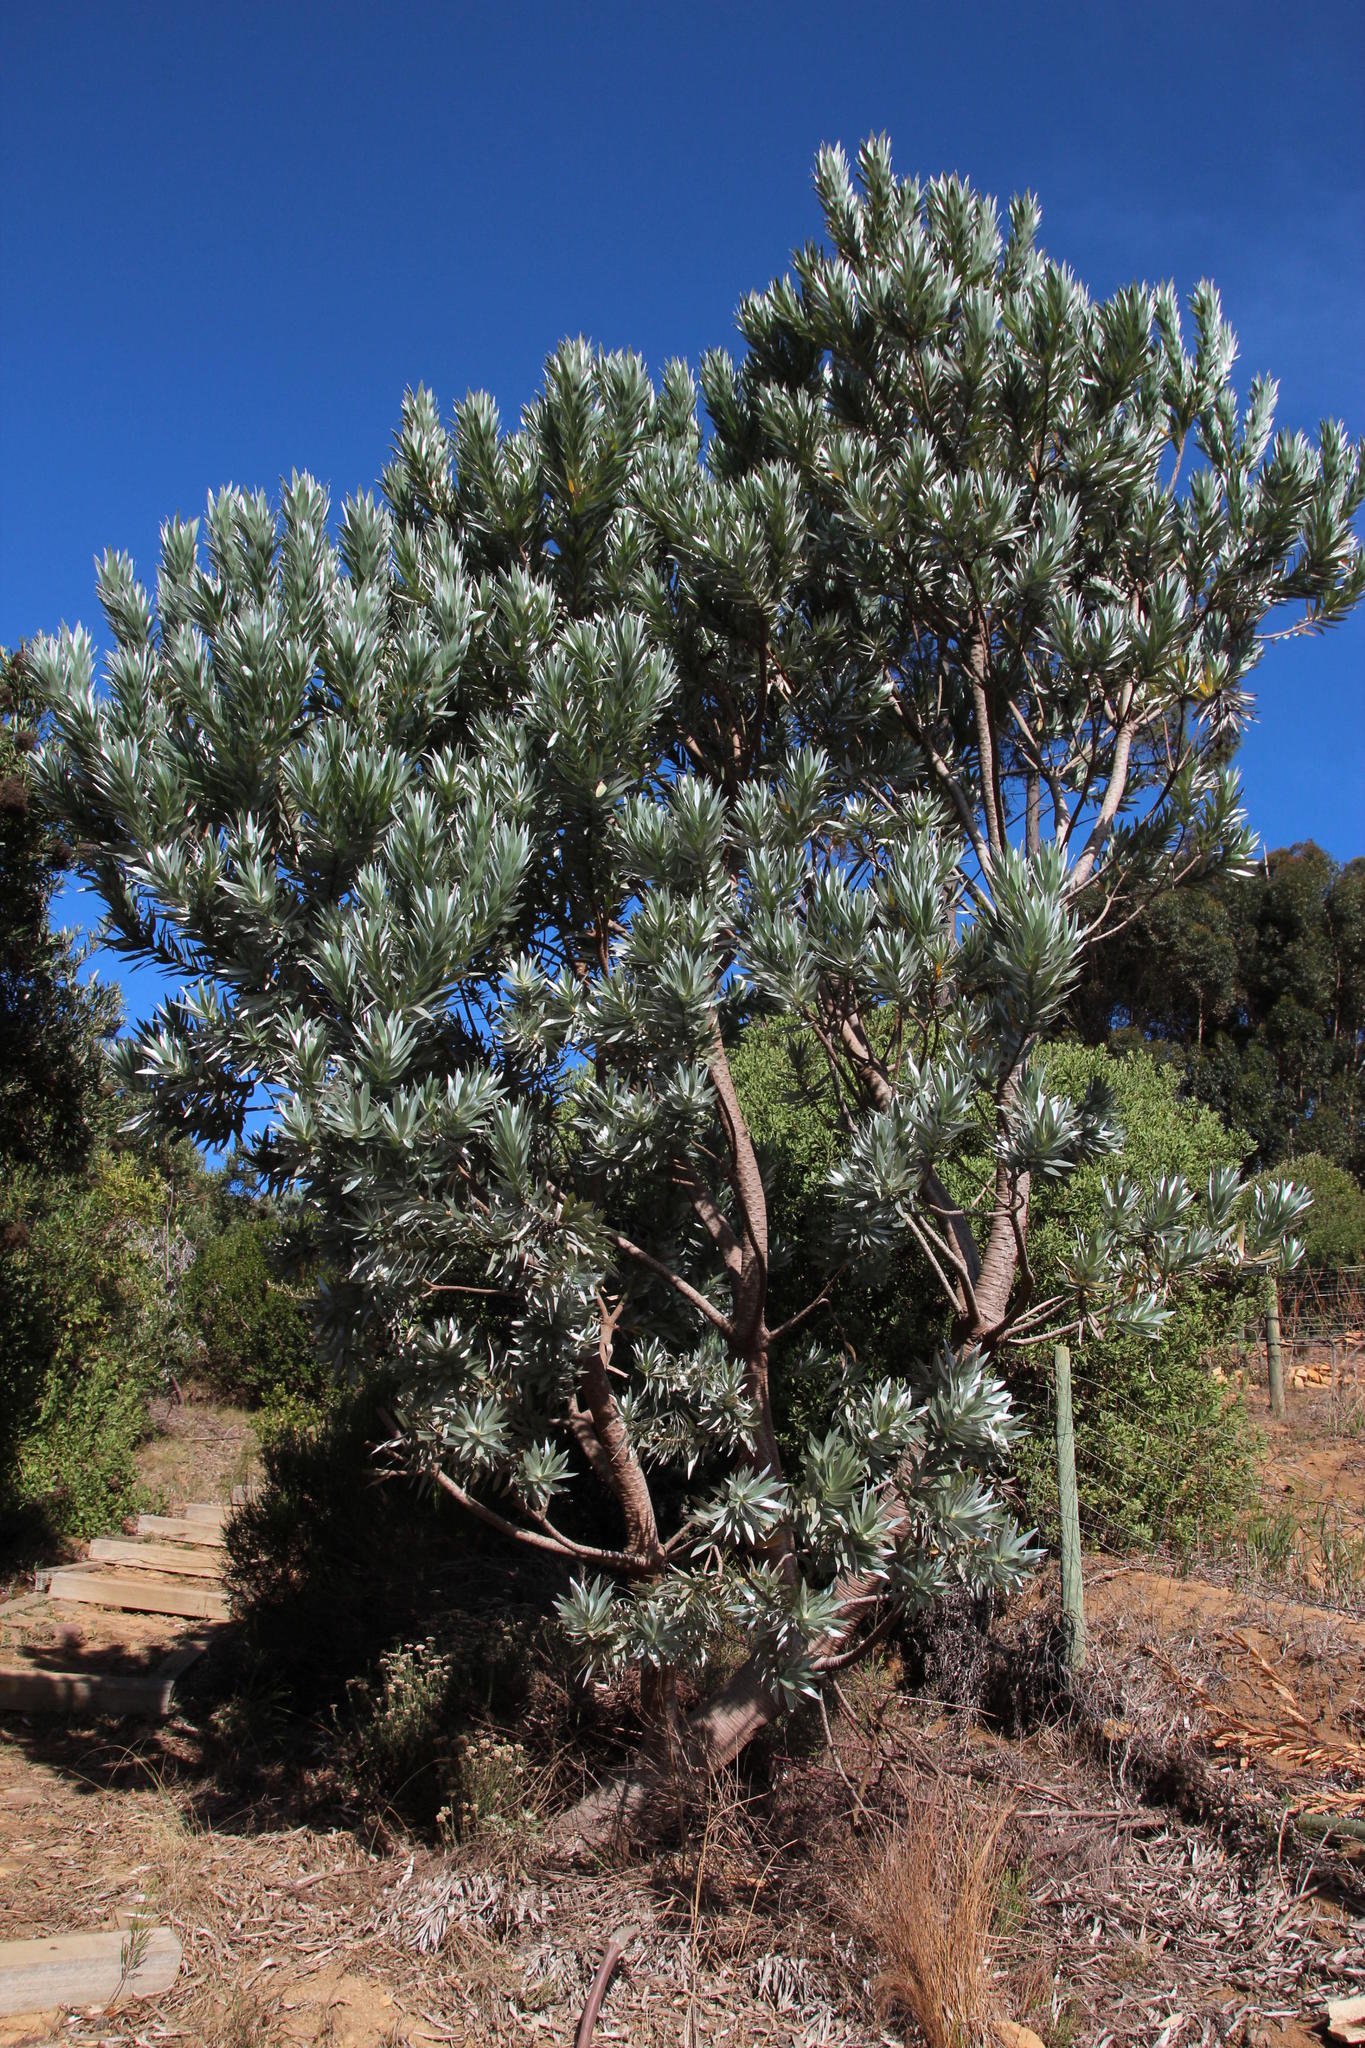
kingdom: Plantae
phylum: Tracheophyta
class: Magnoliopsida
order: Proteales
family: Proteaceae
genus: Leucadendron
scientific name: Leucadendron argenteum
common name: Cape silver tree
